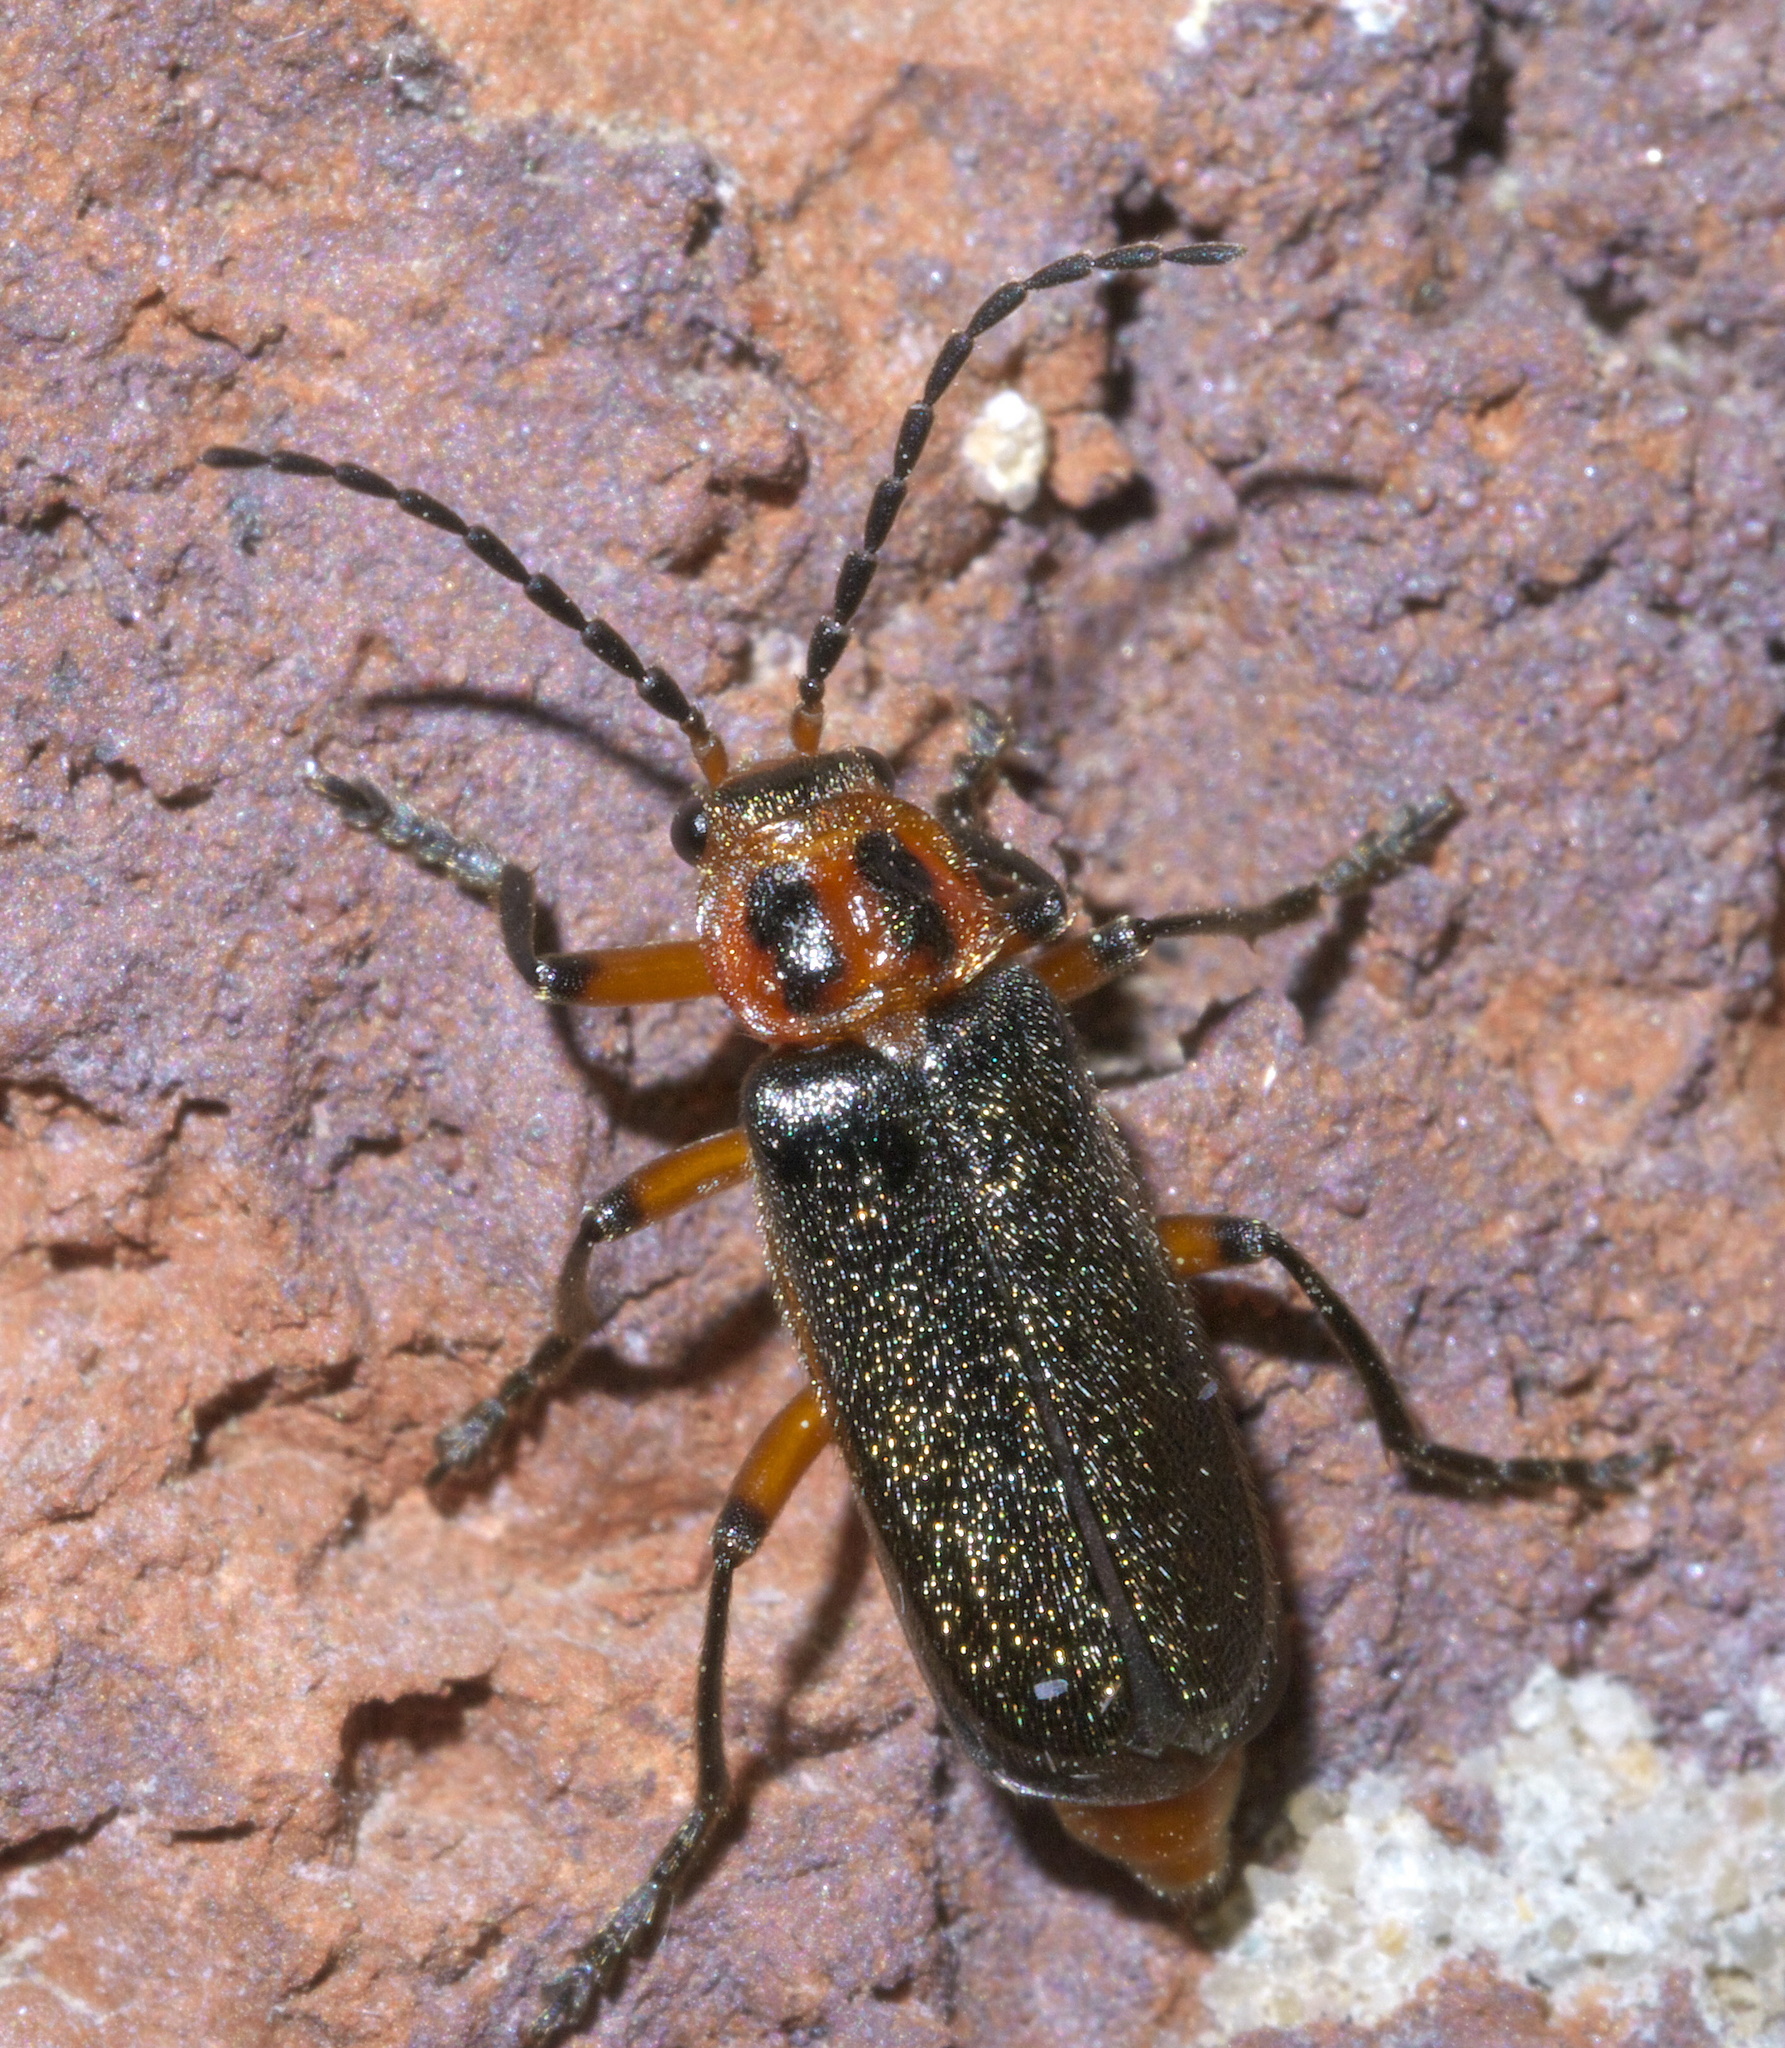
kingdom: Animalia
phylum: Arthropoda
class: Insecta
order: Coleoptera
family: Cantharidae
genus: Atalantycha
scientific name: Atalantycha bilineata
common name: Two-lined leatherwing
